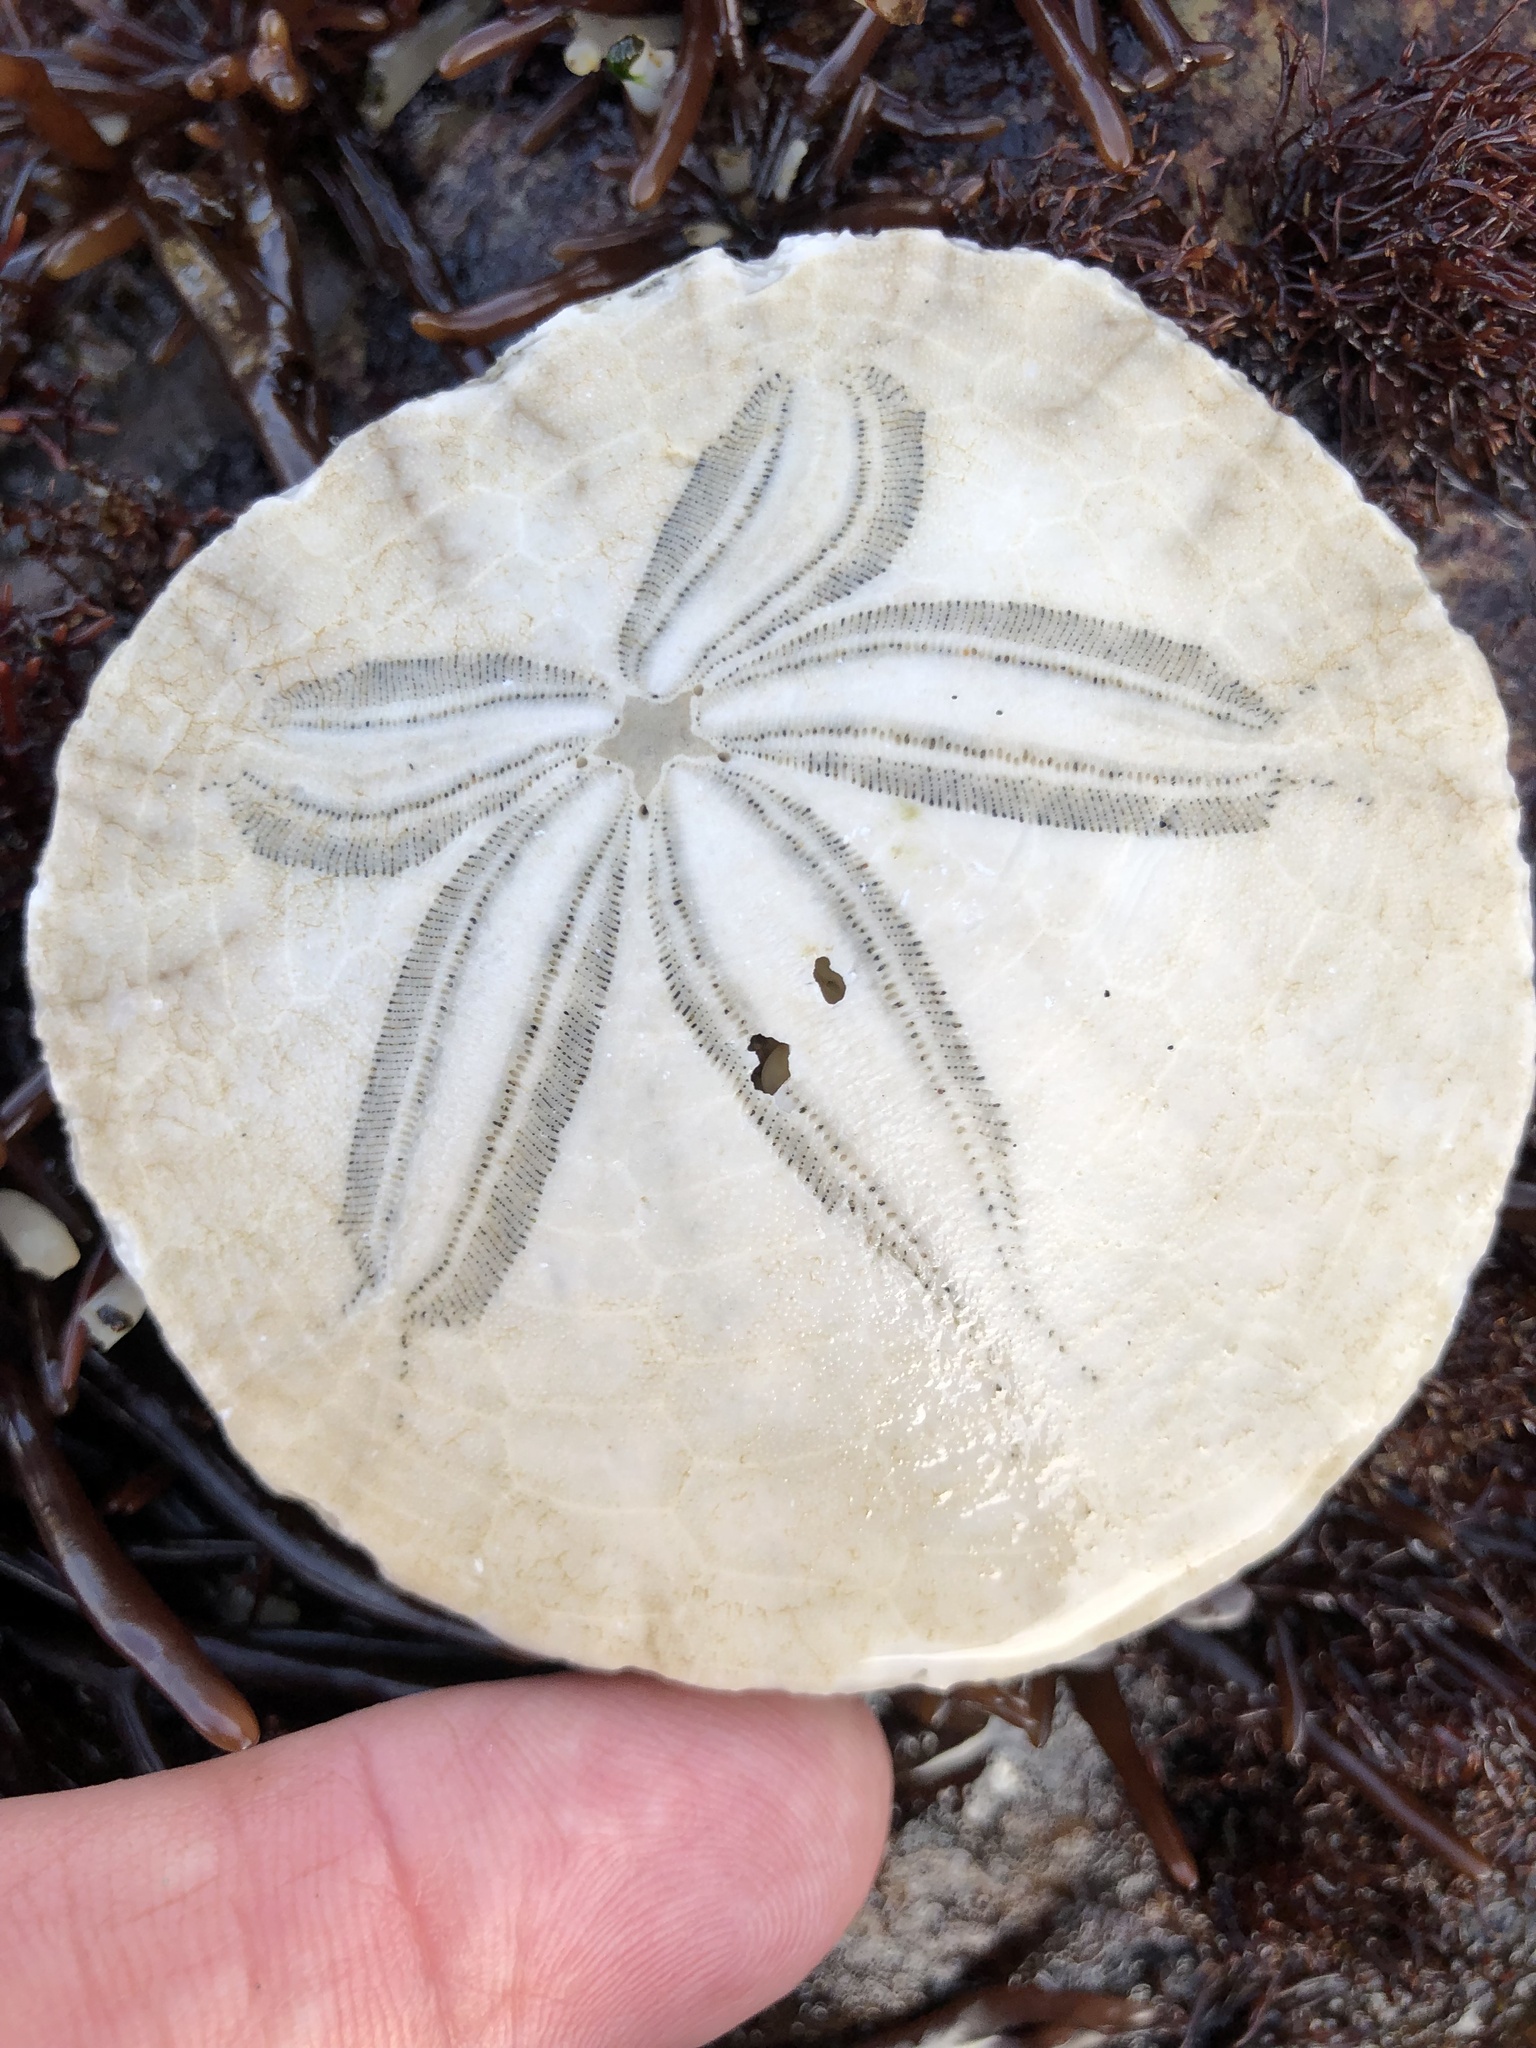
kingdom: Animalia
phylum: Echinodermata
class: Echinoidea
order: Echinolampadacea
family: Dendrasteridae
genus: Dendraster
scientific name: Dendraster excentricus
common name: Eccentric sand dollar sea urchin
